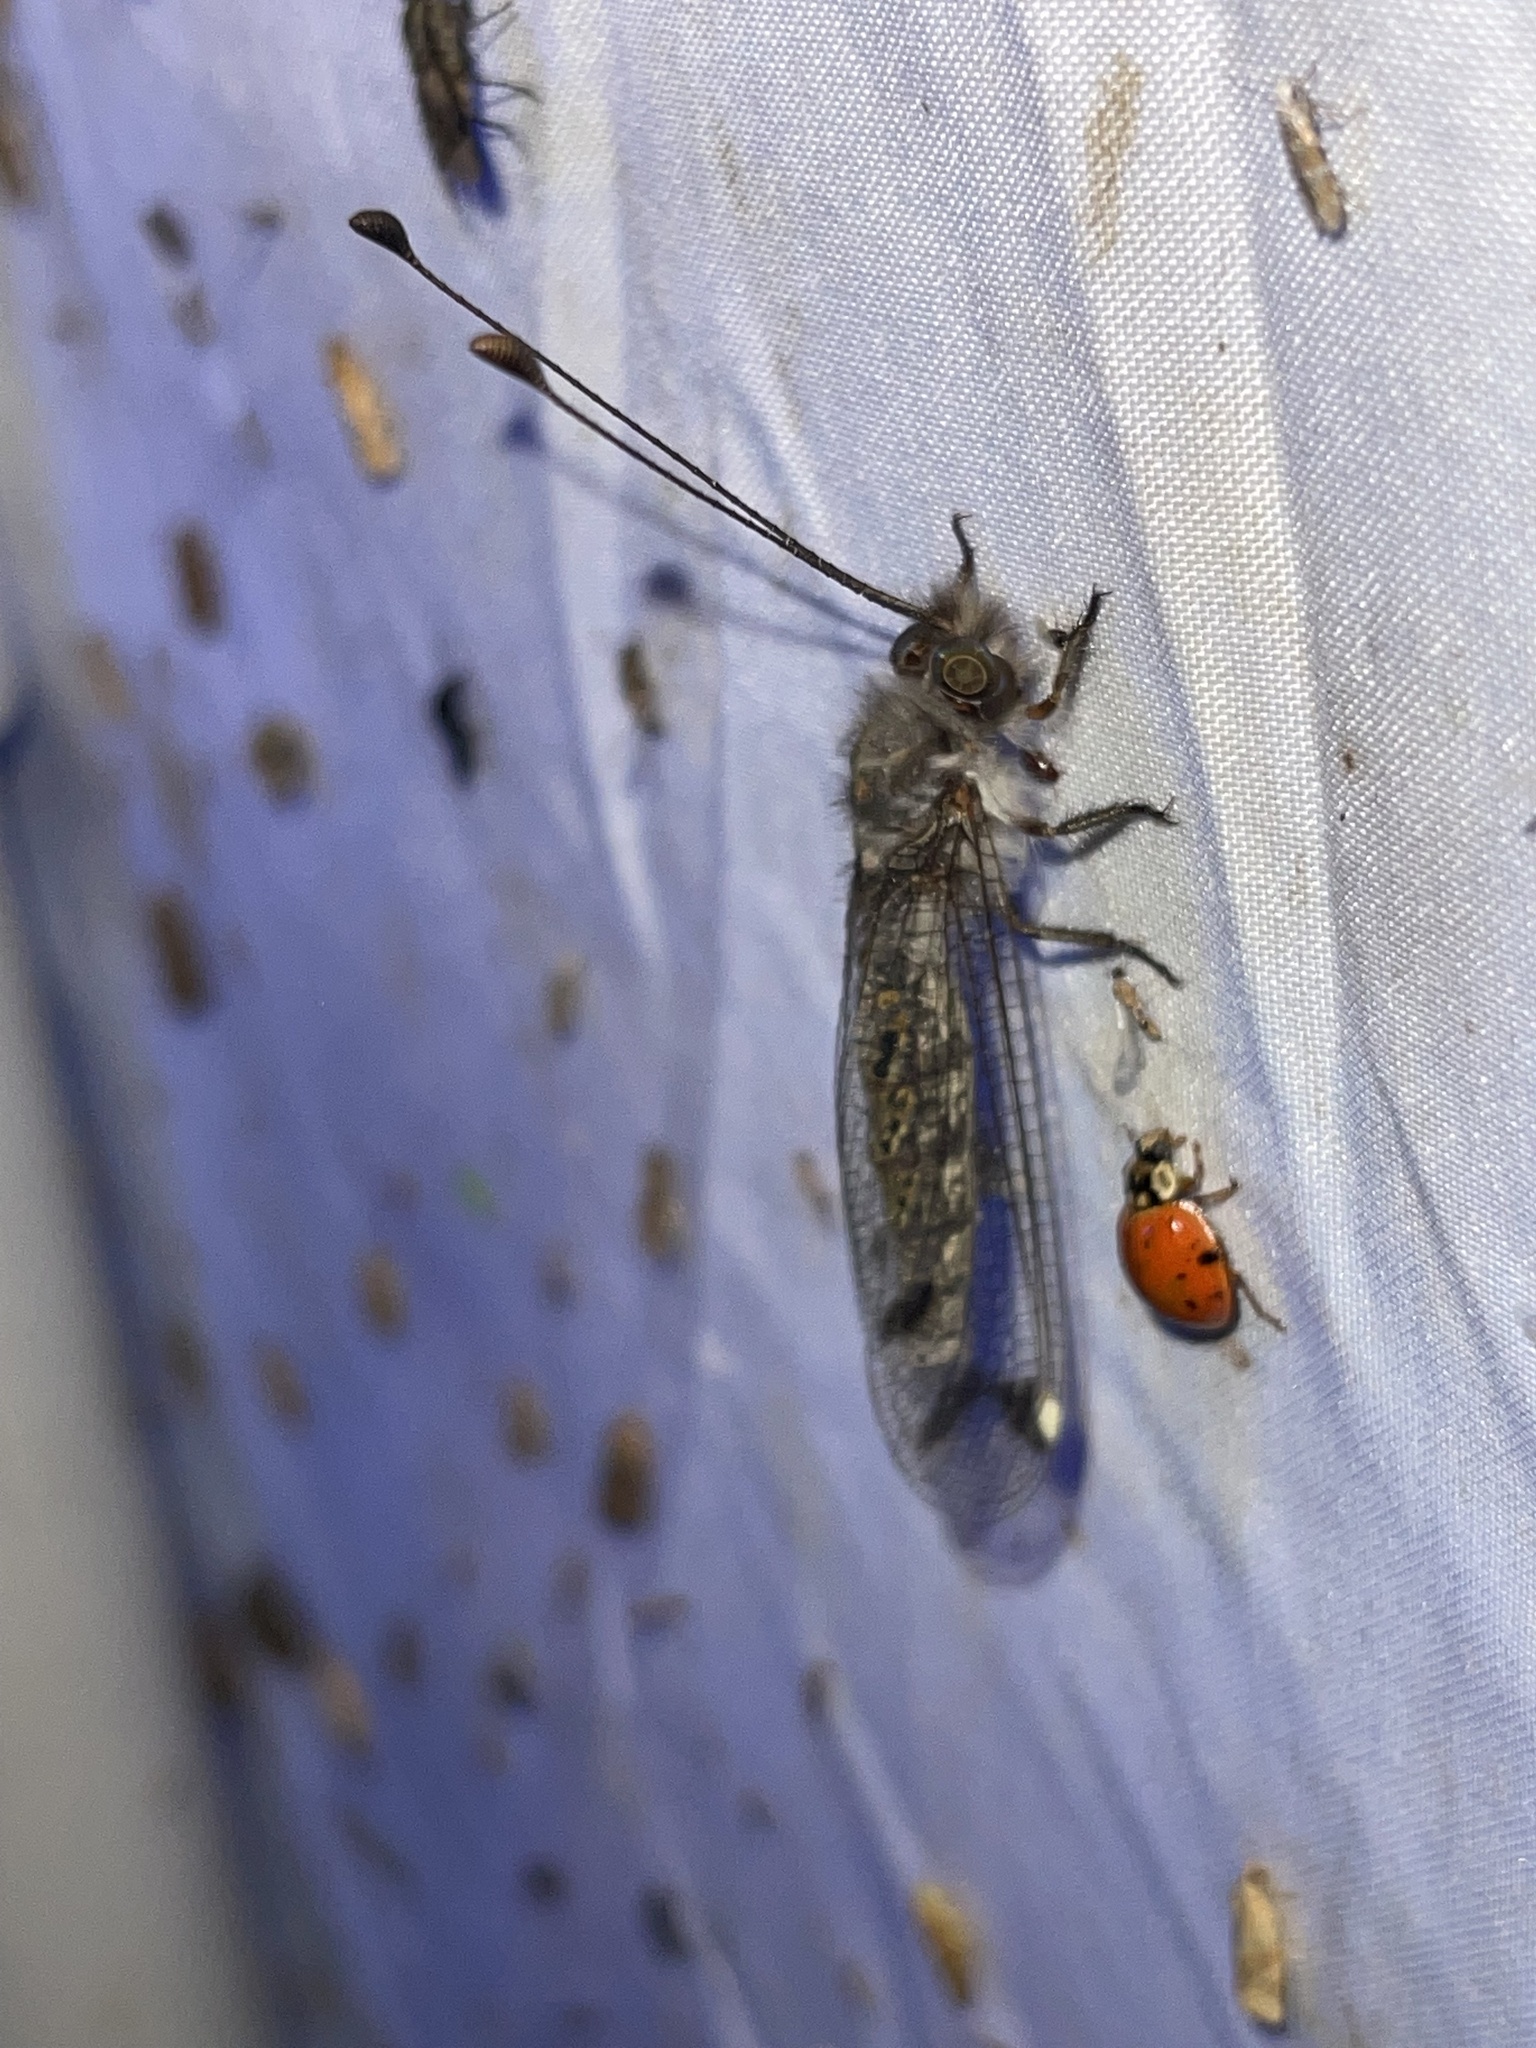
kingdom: Animalia
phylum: Arthropoda
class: Insecta
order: Neuroptera
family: Ascalaphidae
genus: Ululodes
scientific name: Ululodes quadripunctatus
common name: Four-spotted owlfly
